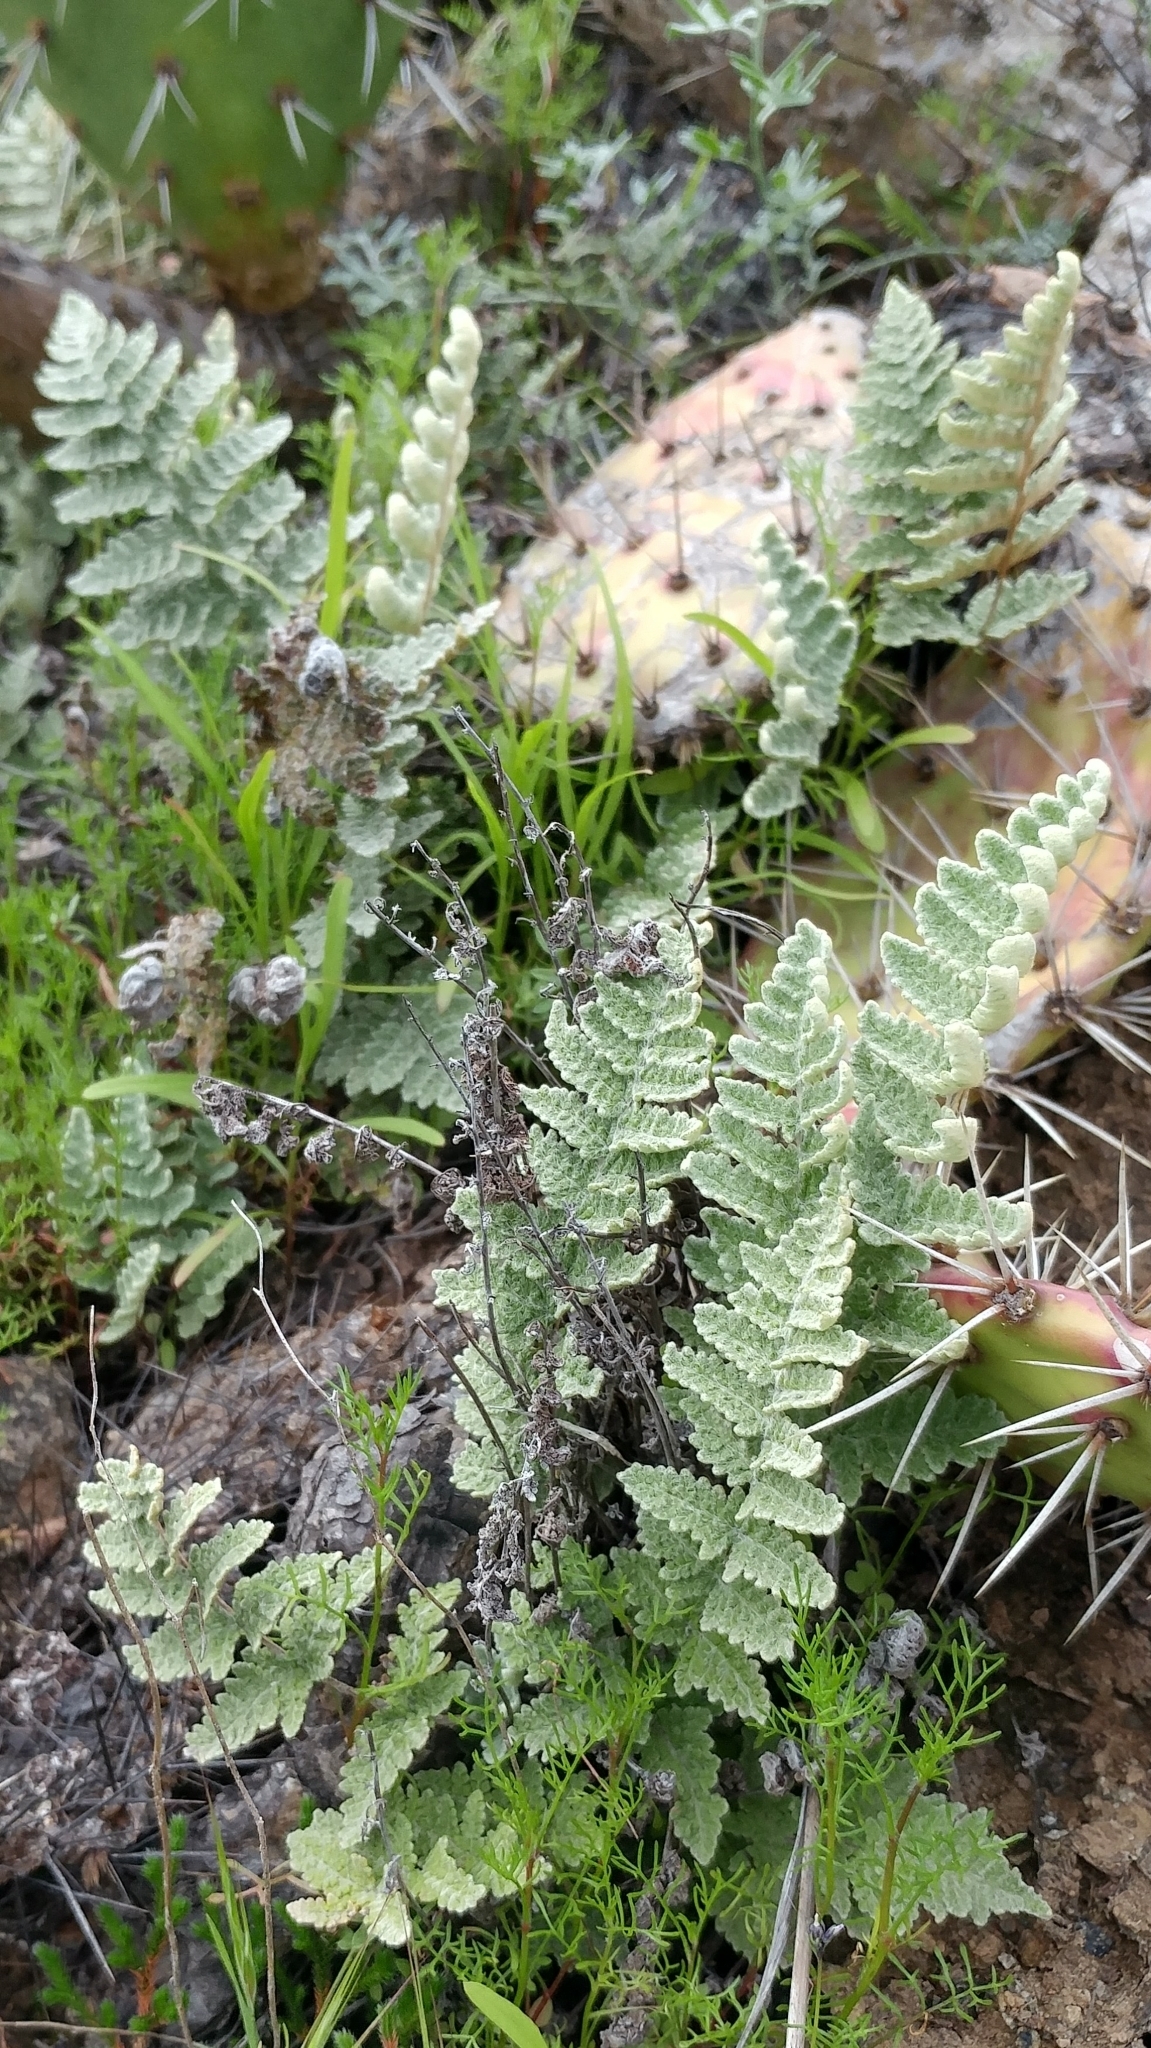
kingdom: Plantae
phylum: Tracheophyta
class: Polypodiopsida
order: Polypodiales
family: Pteridaceae
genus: Myriopteris
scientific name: Myriopteris newberryi
